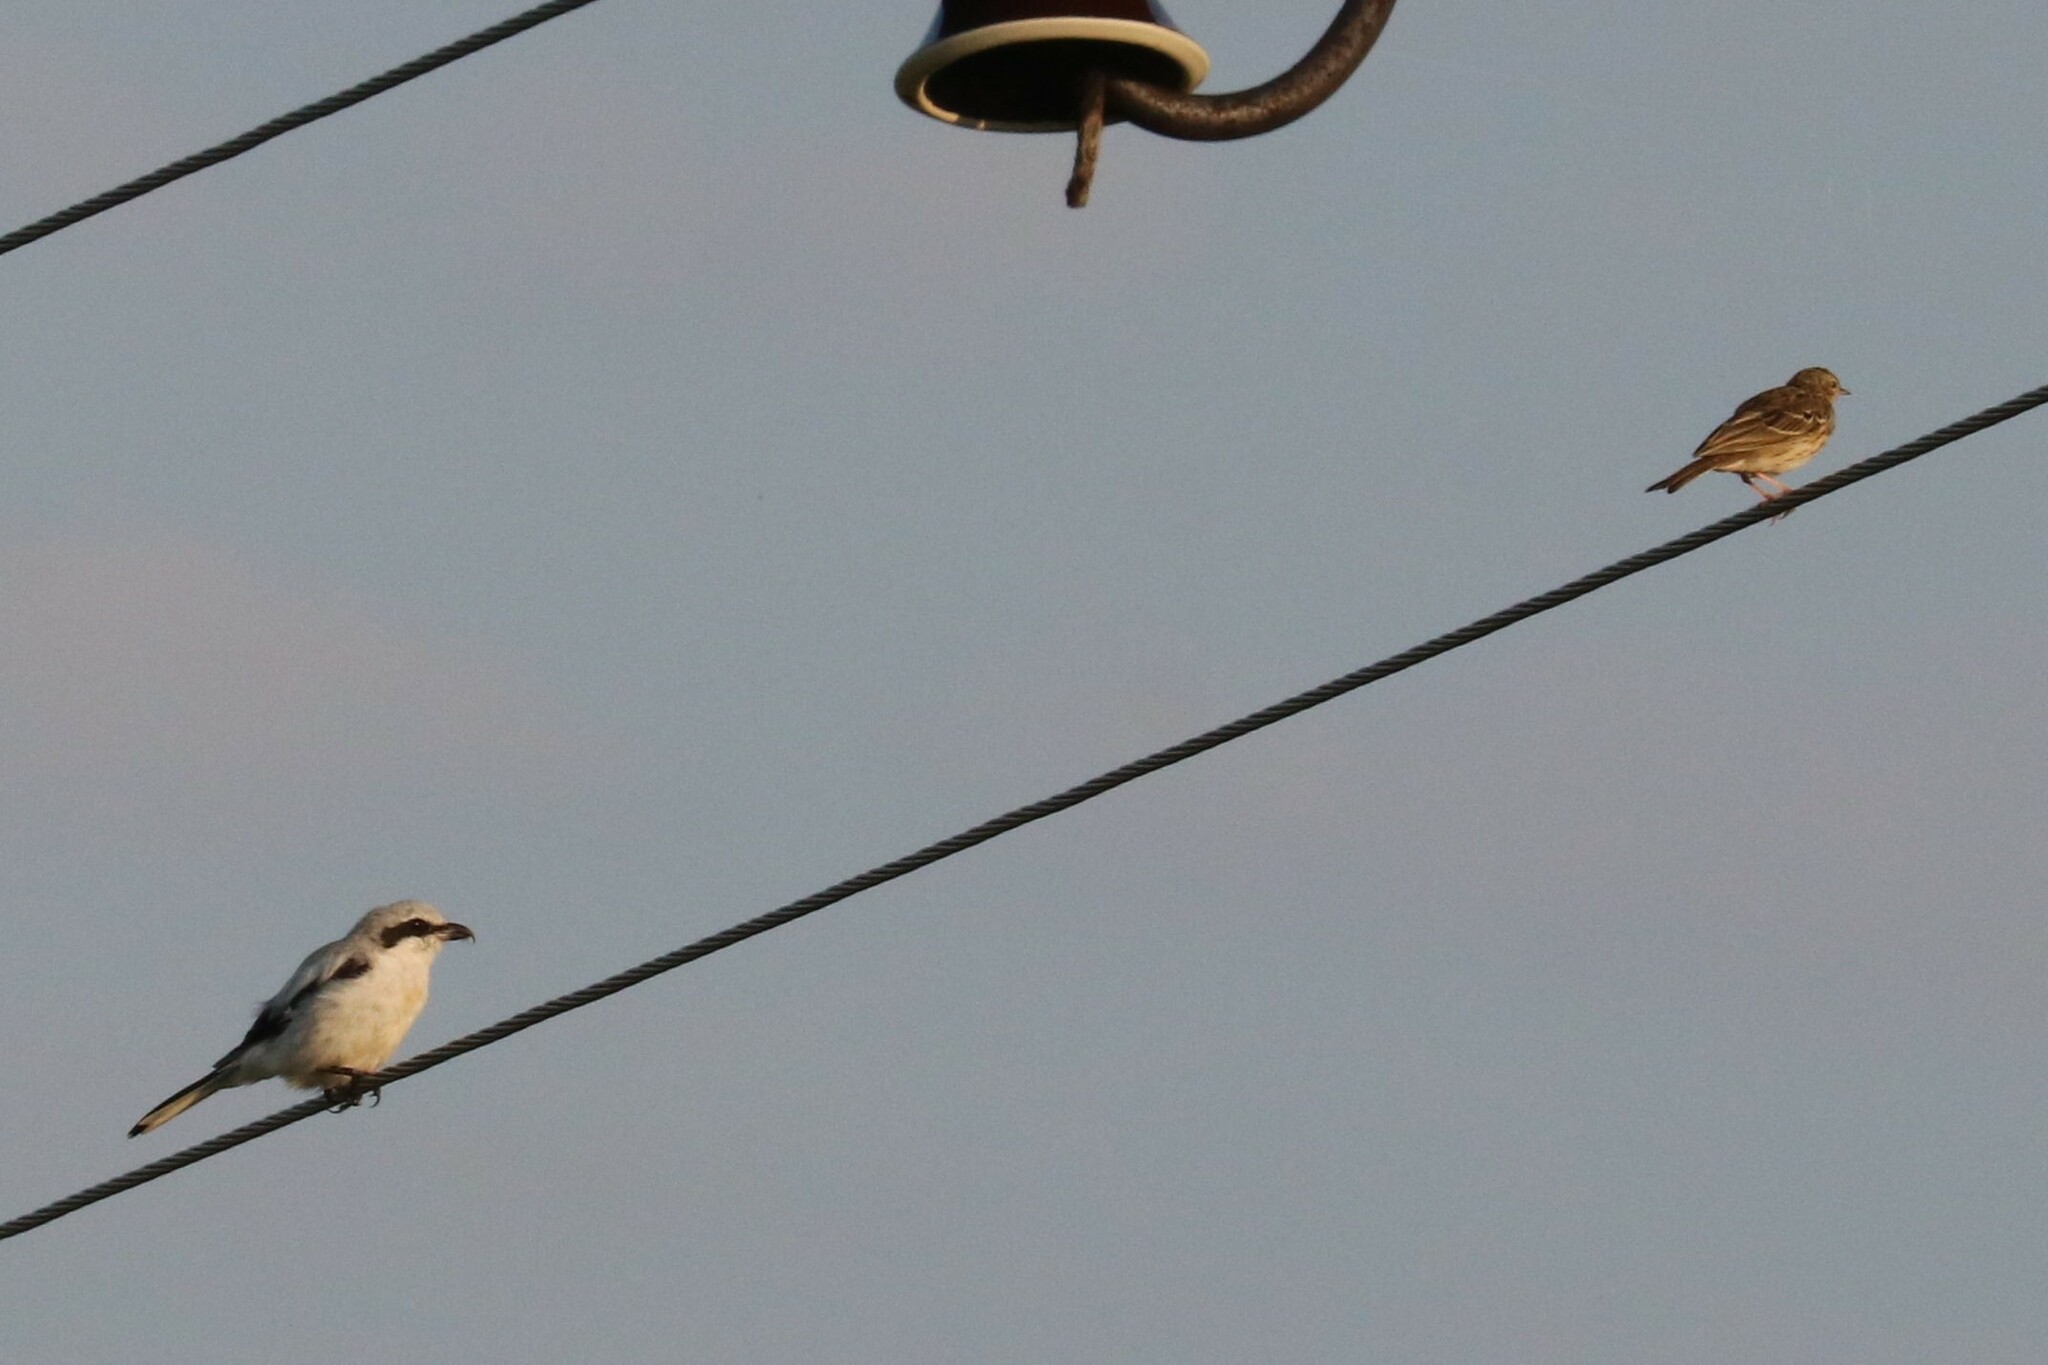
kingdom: Animalia
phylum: Chordata
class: Aves
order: Passeriformes
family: Laniidae
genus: Lanius
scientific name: Lanius excubitor
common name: Great grey shrike
